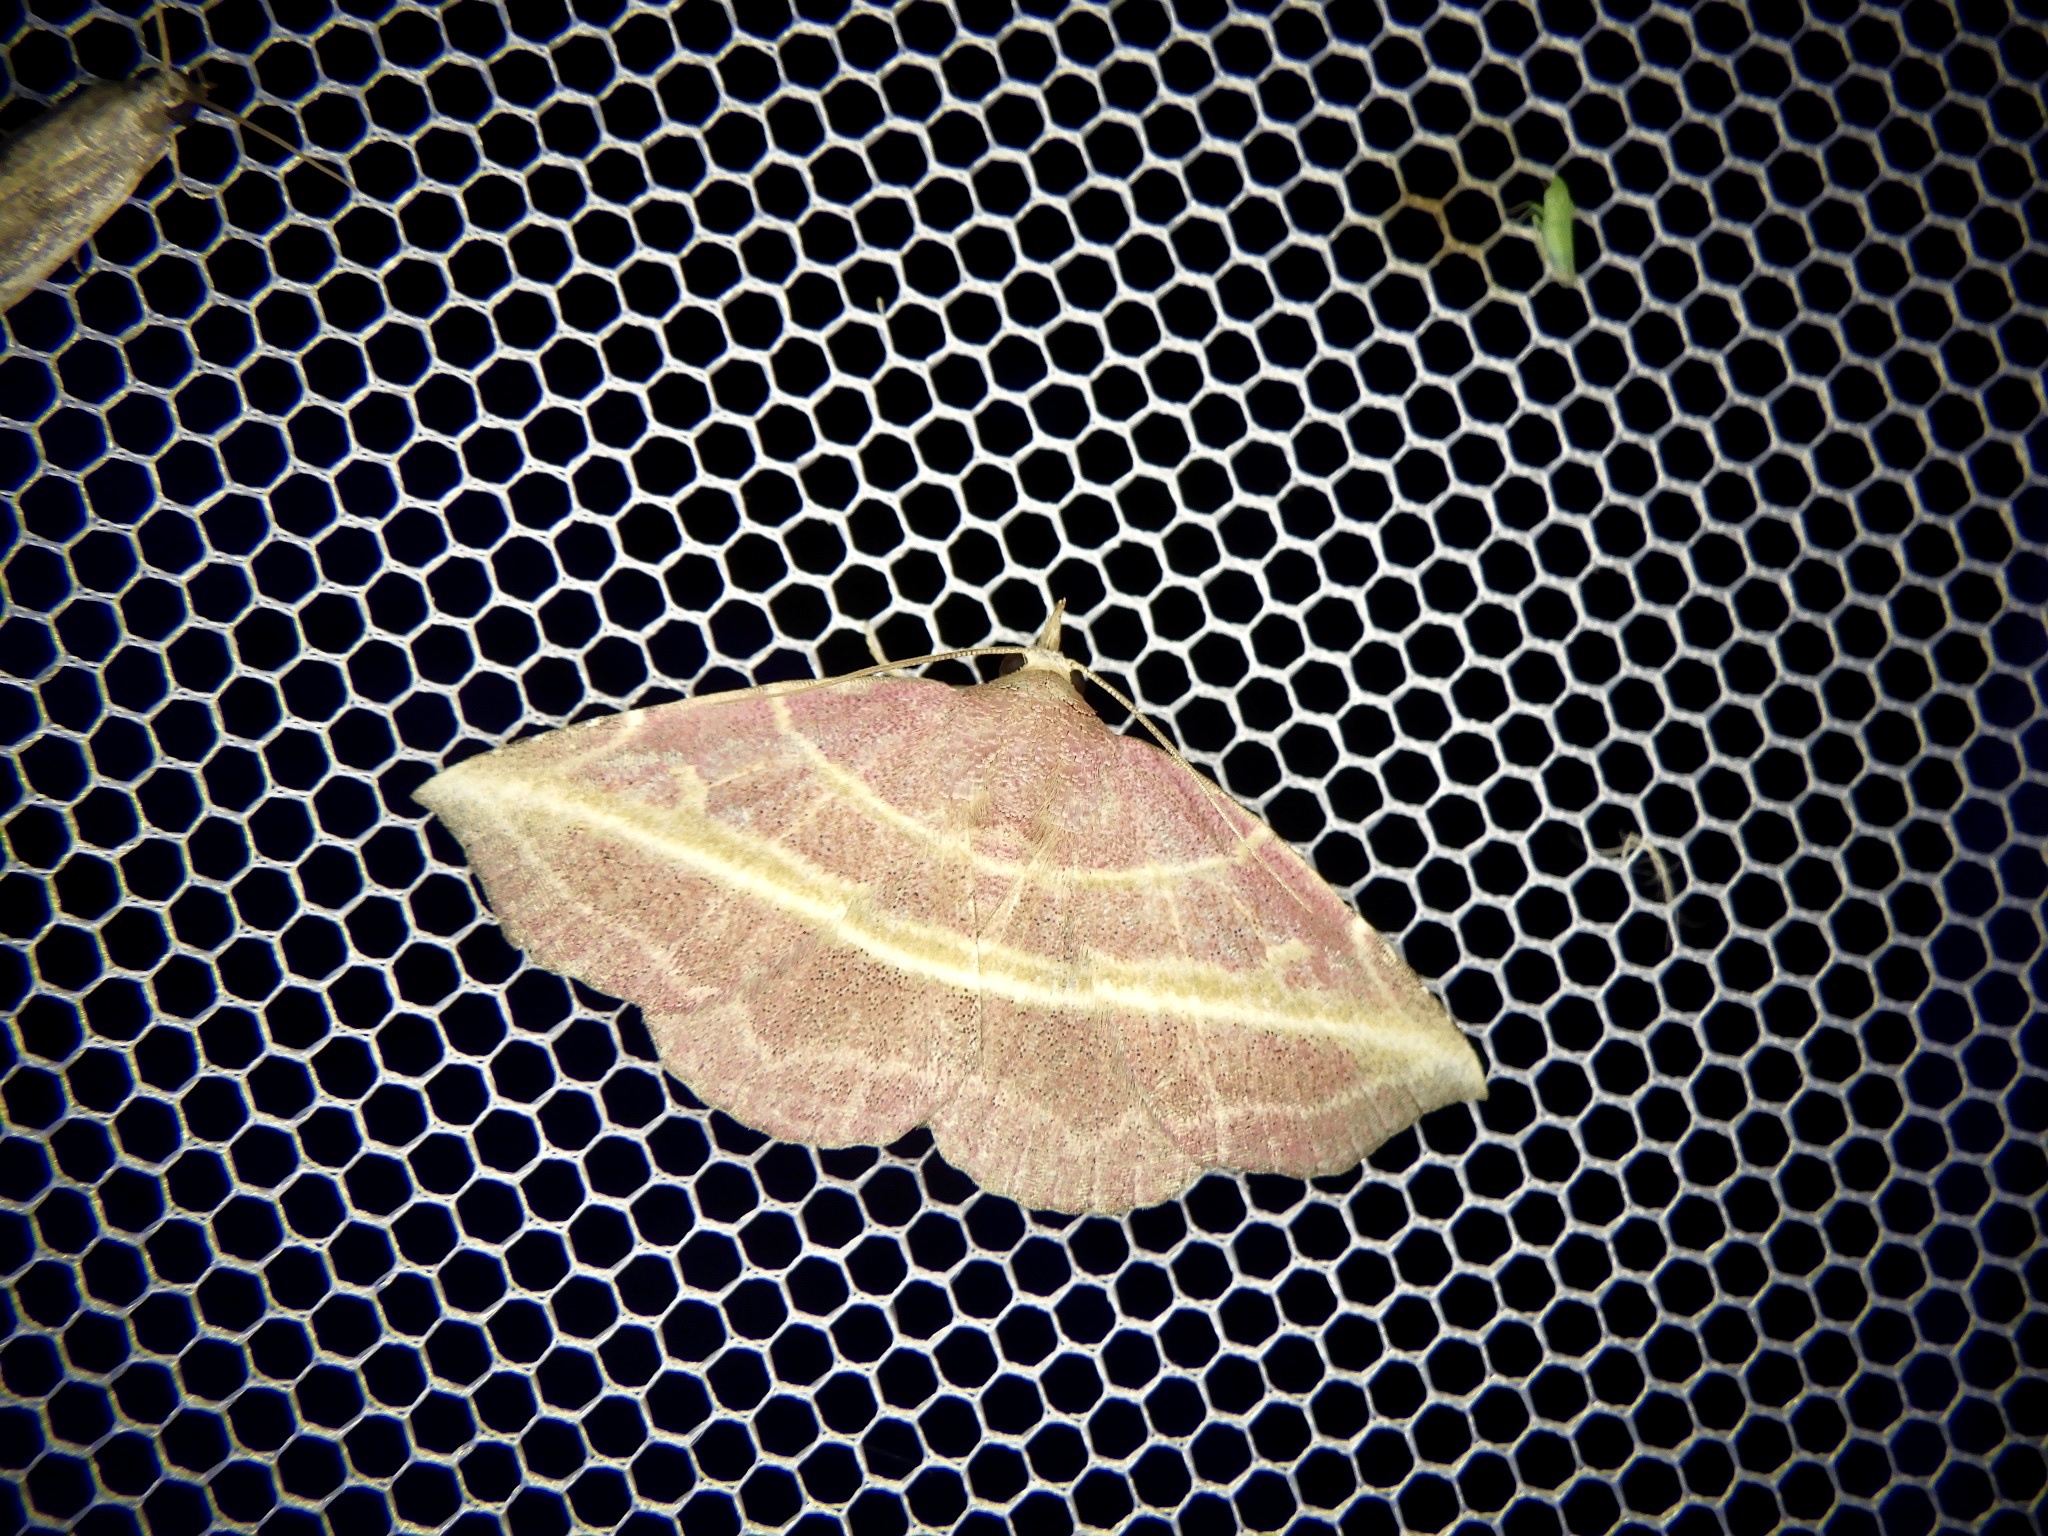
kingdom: Animalia
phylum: Arthropoda
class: Insecta
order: Lepidoptera
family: Noctuidae
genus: Naganoella
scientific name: Naganoella
